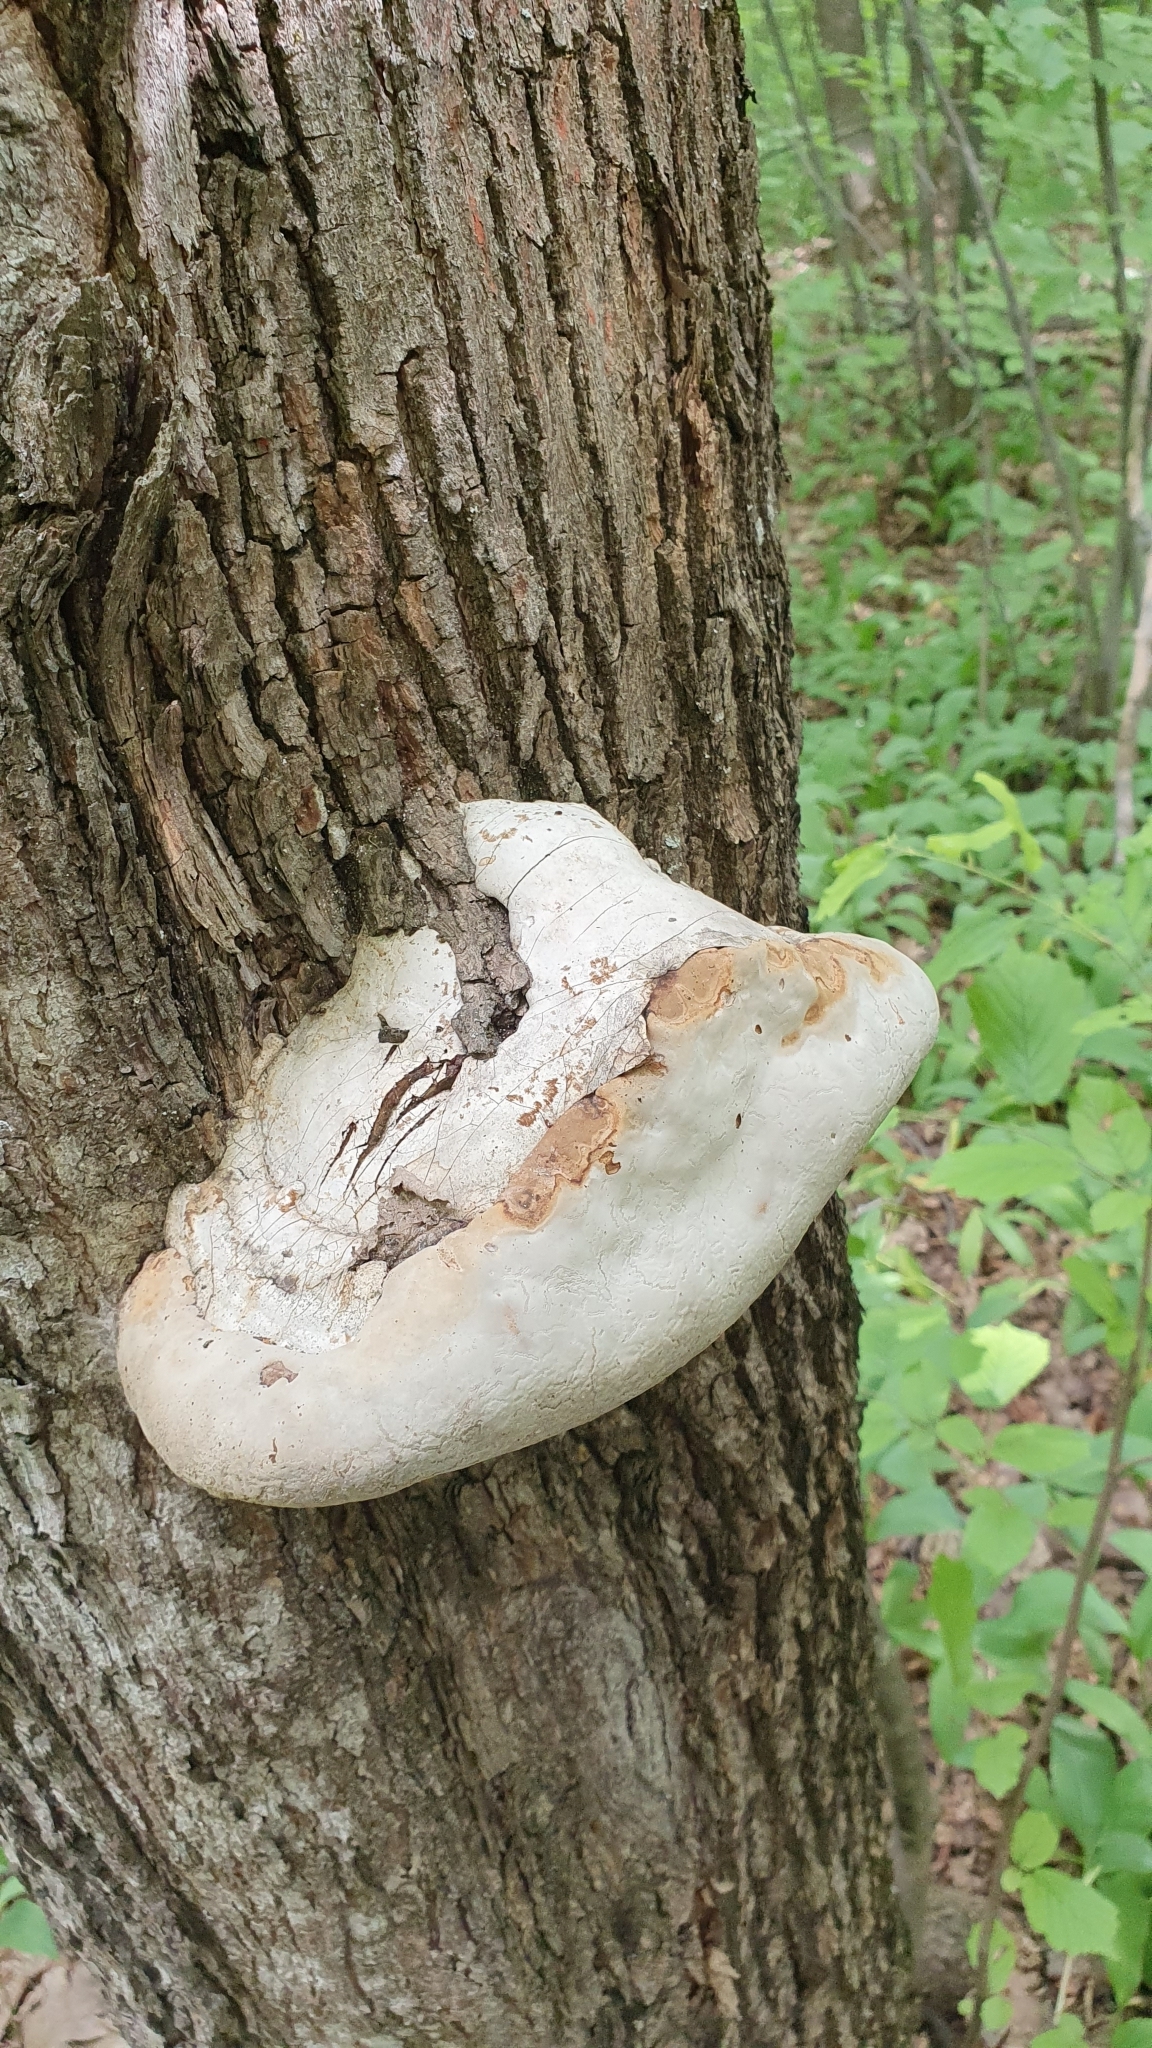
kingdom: Fungi
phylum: Basidiomycota
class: Agaricomycetes
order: Polyporales
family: Polyporaceae
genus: Fomes
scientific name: Fomes fomentarius
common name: Hoof fungus
